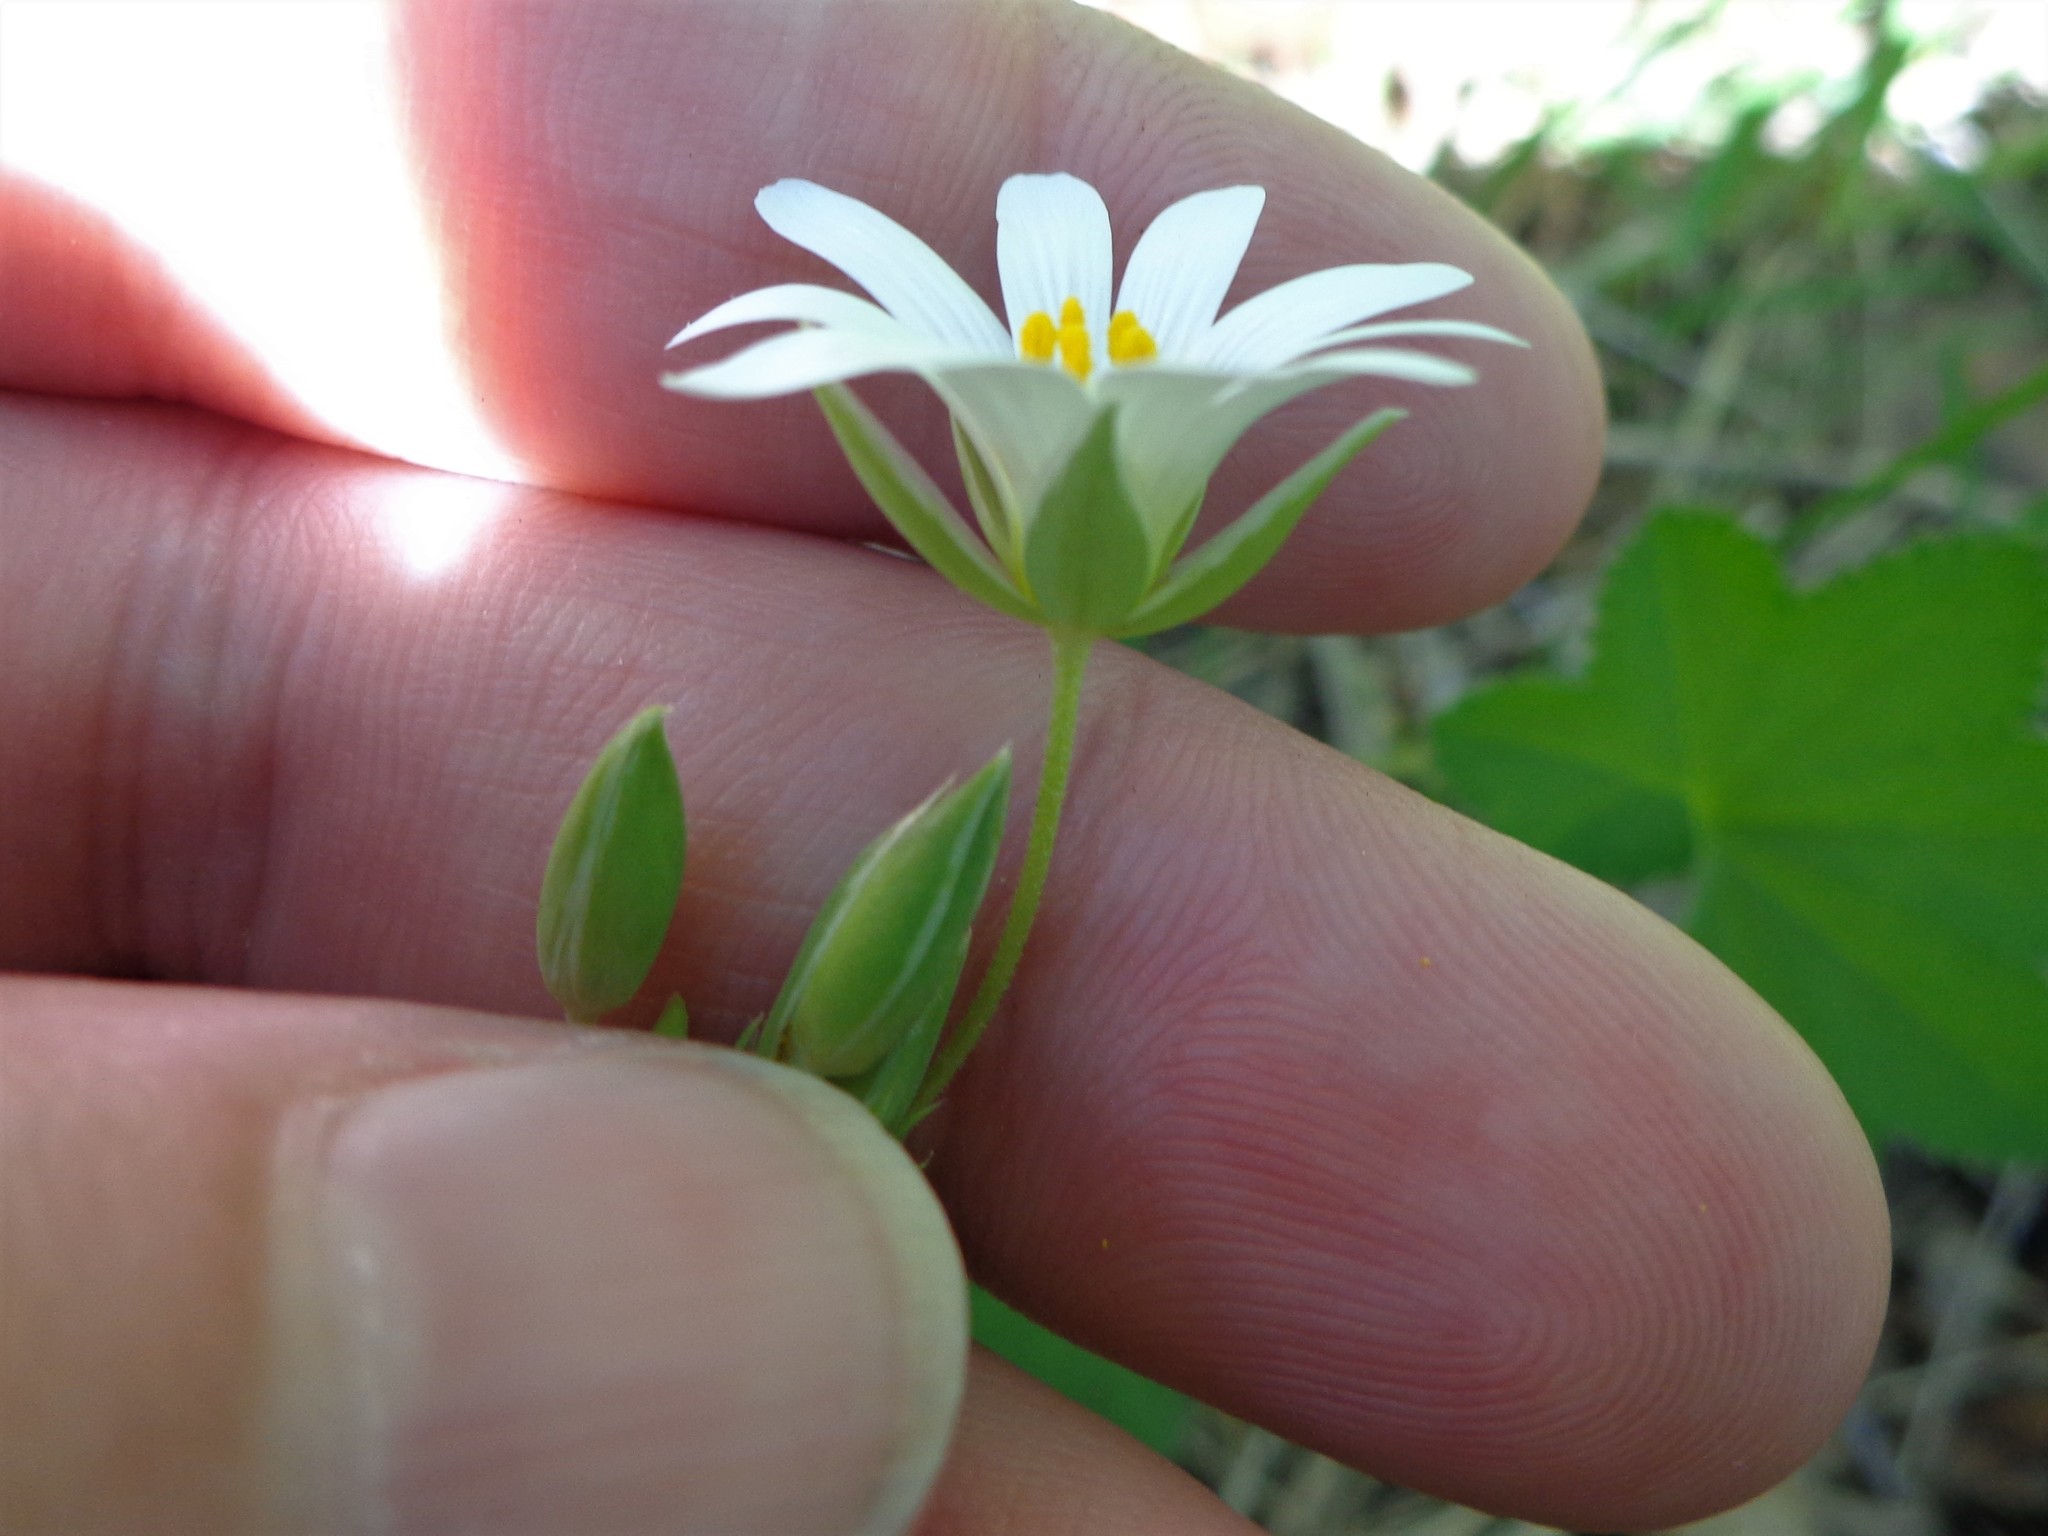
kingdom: Plantae
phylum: Tracheophyta
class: Magnoliopsida
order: Caryophyllales
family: Caryophyllaceae
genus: Rabelera
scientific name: Rabelera holostea
